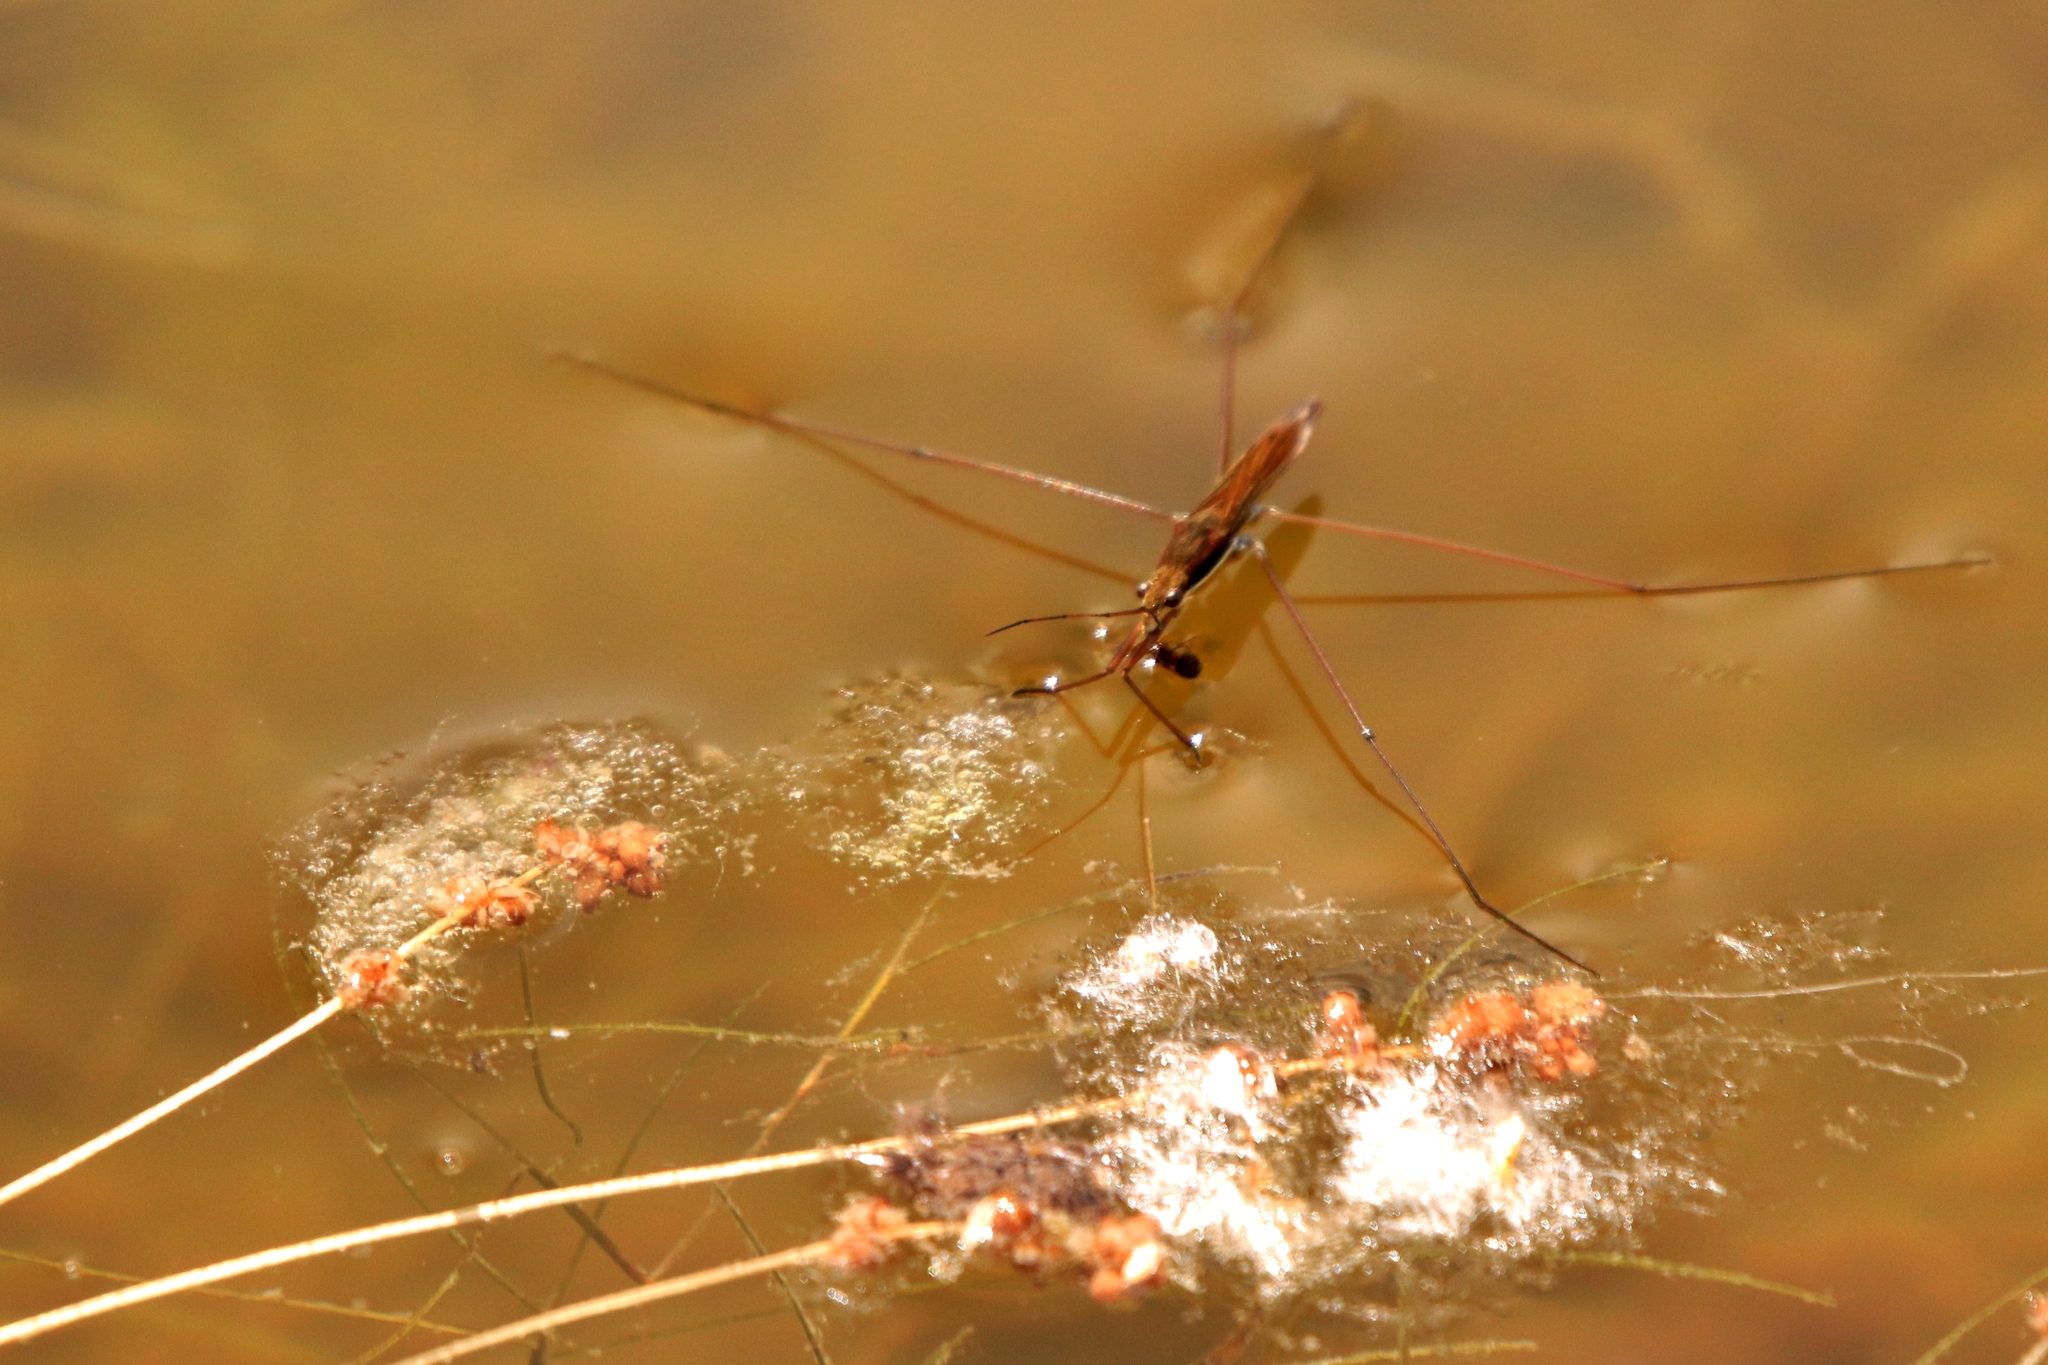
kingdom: Animalia
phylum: Arthropoda
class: Insecta
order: Hemiptera
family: Gerridae
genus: Limnoporus
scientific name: Limnoporus notabilis
